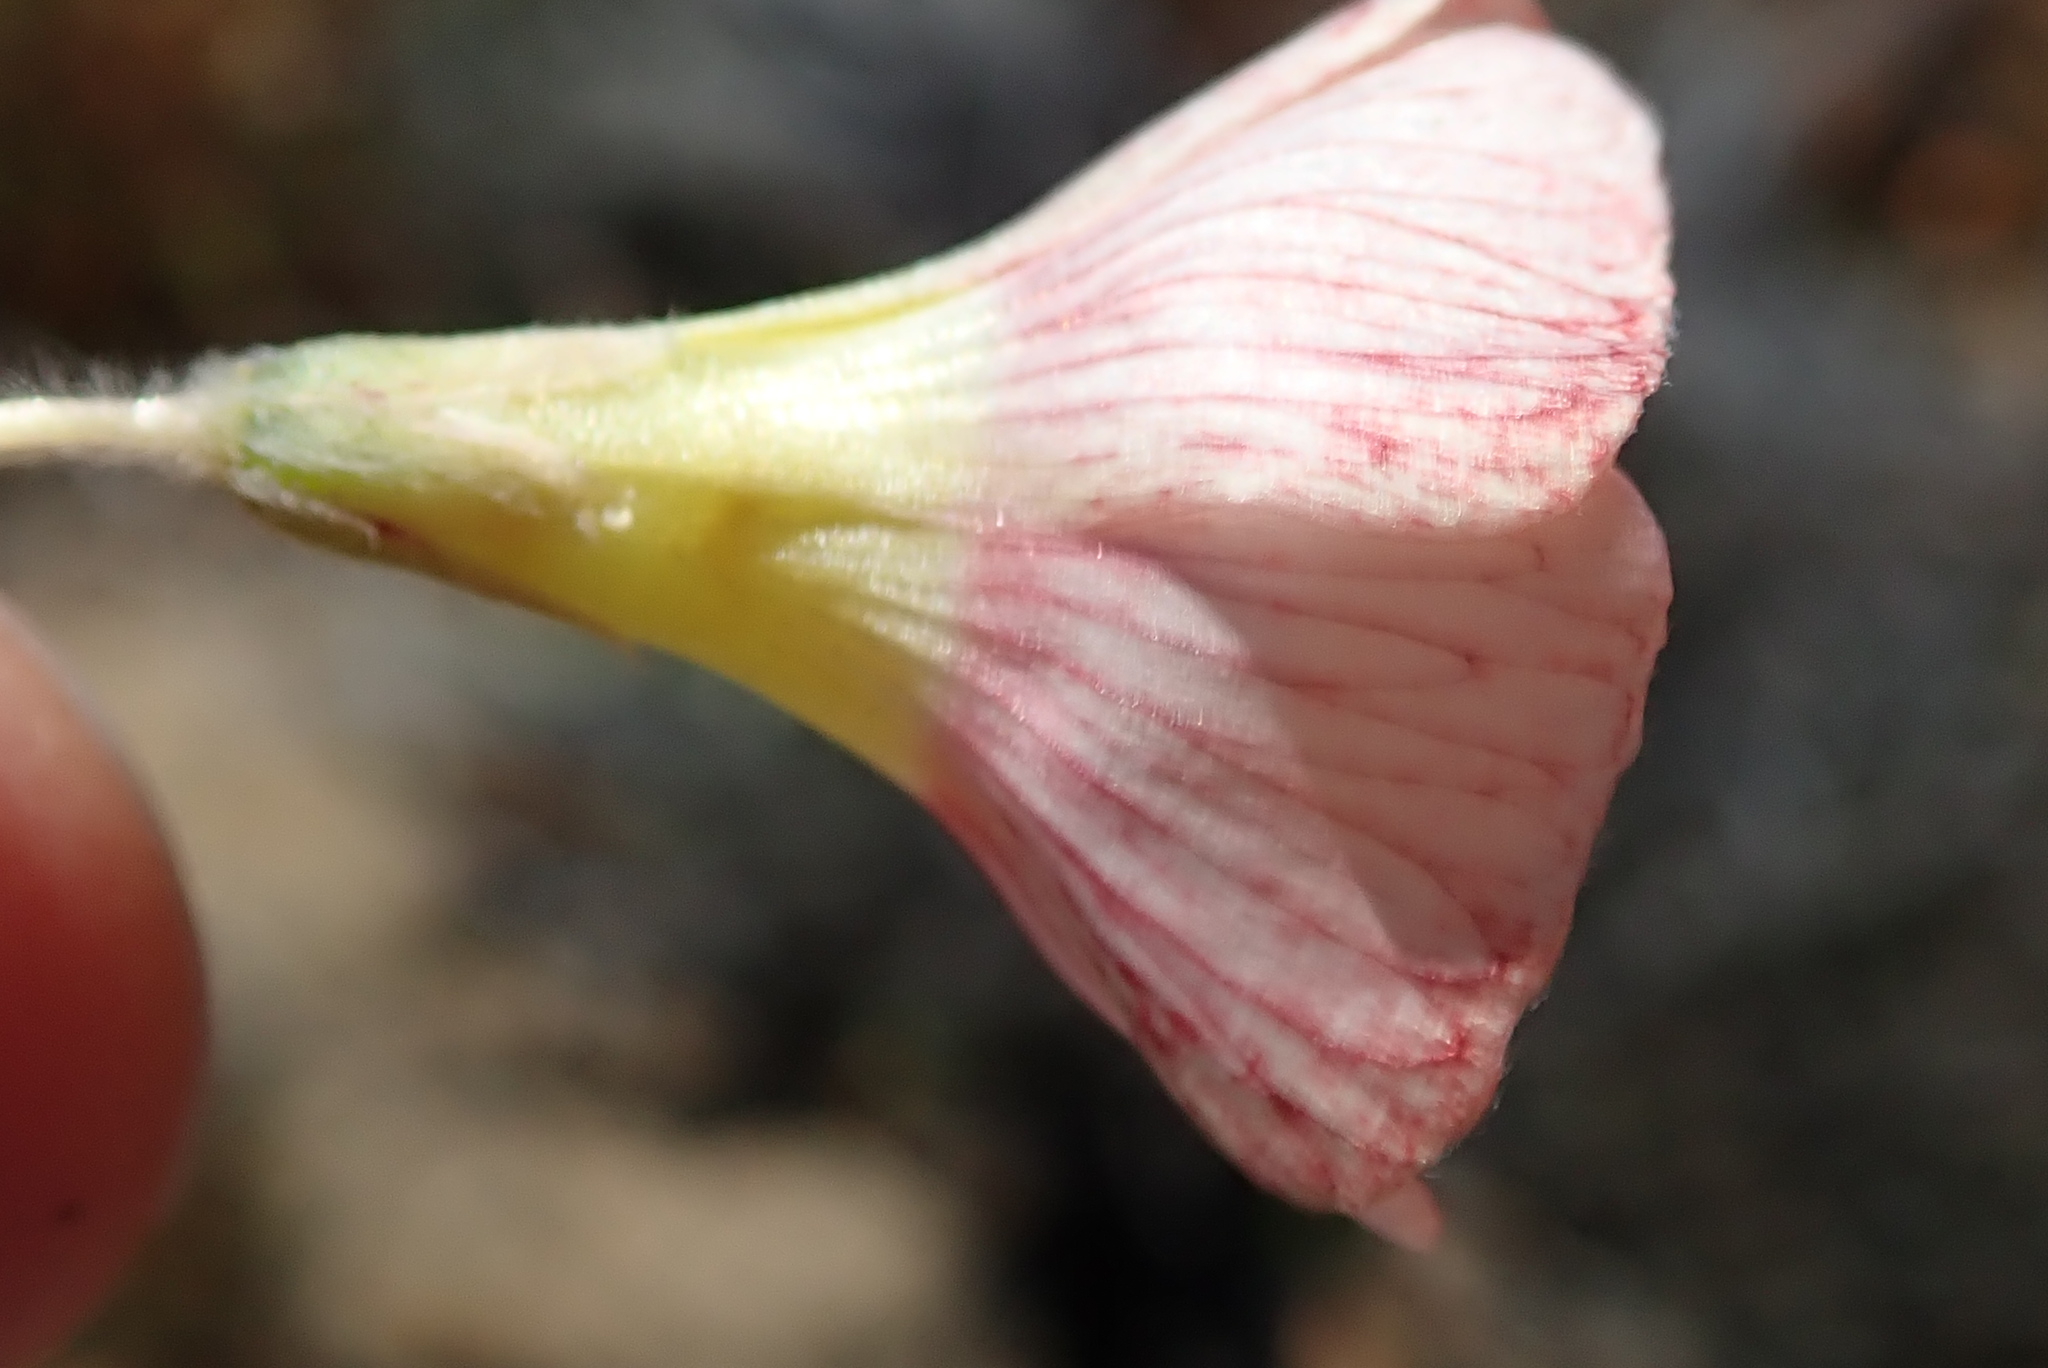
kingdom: Plantae
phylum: Tracheophyta
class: Magnoliopsida
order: Oxalidales
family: Oxalidaceae
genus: Oxalis
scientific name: Oxalis obtusa
